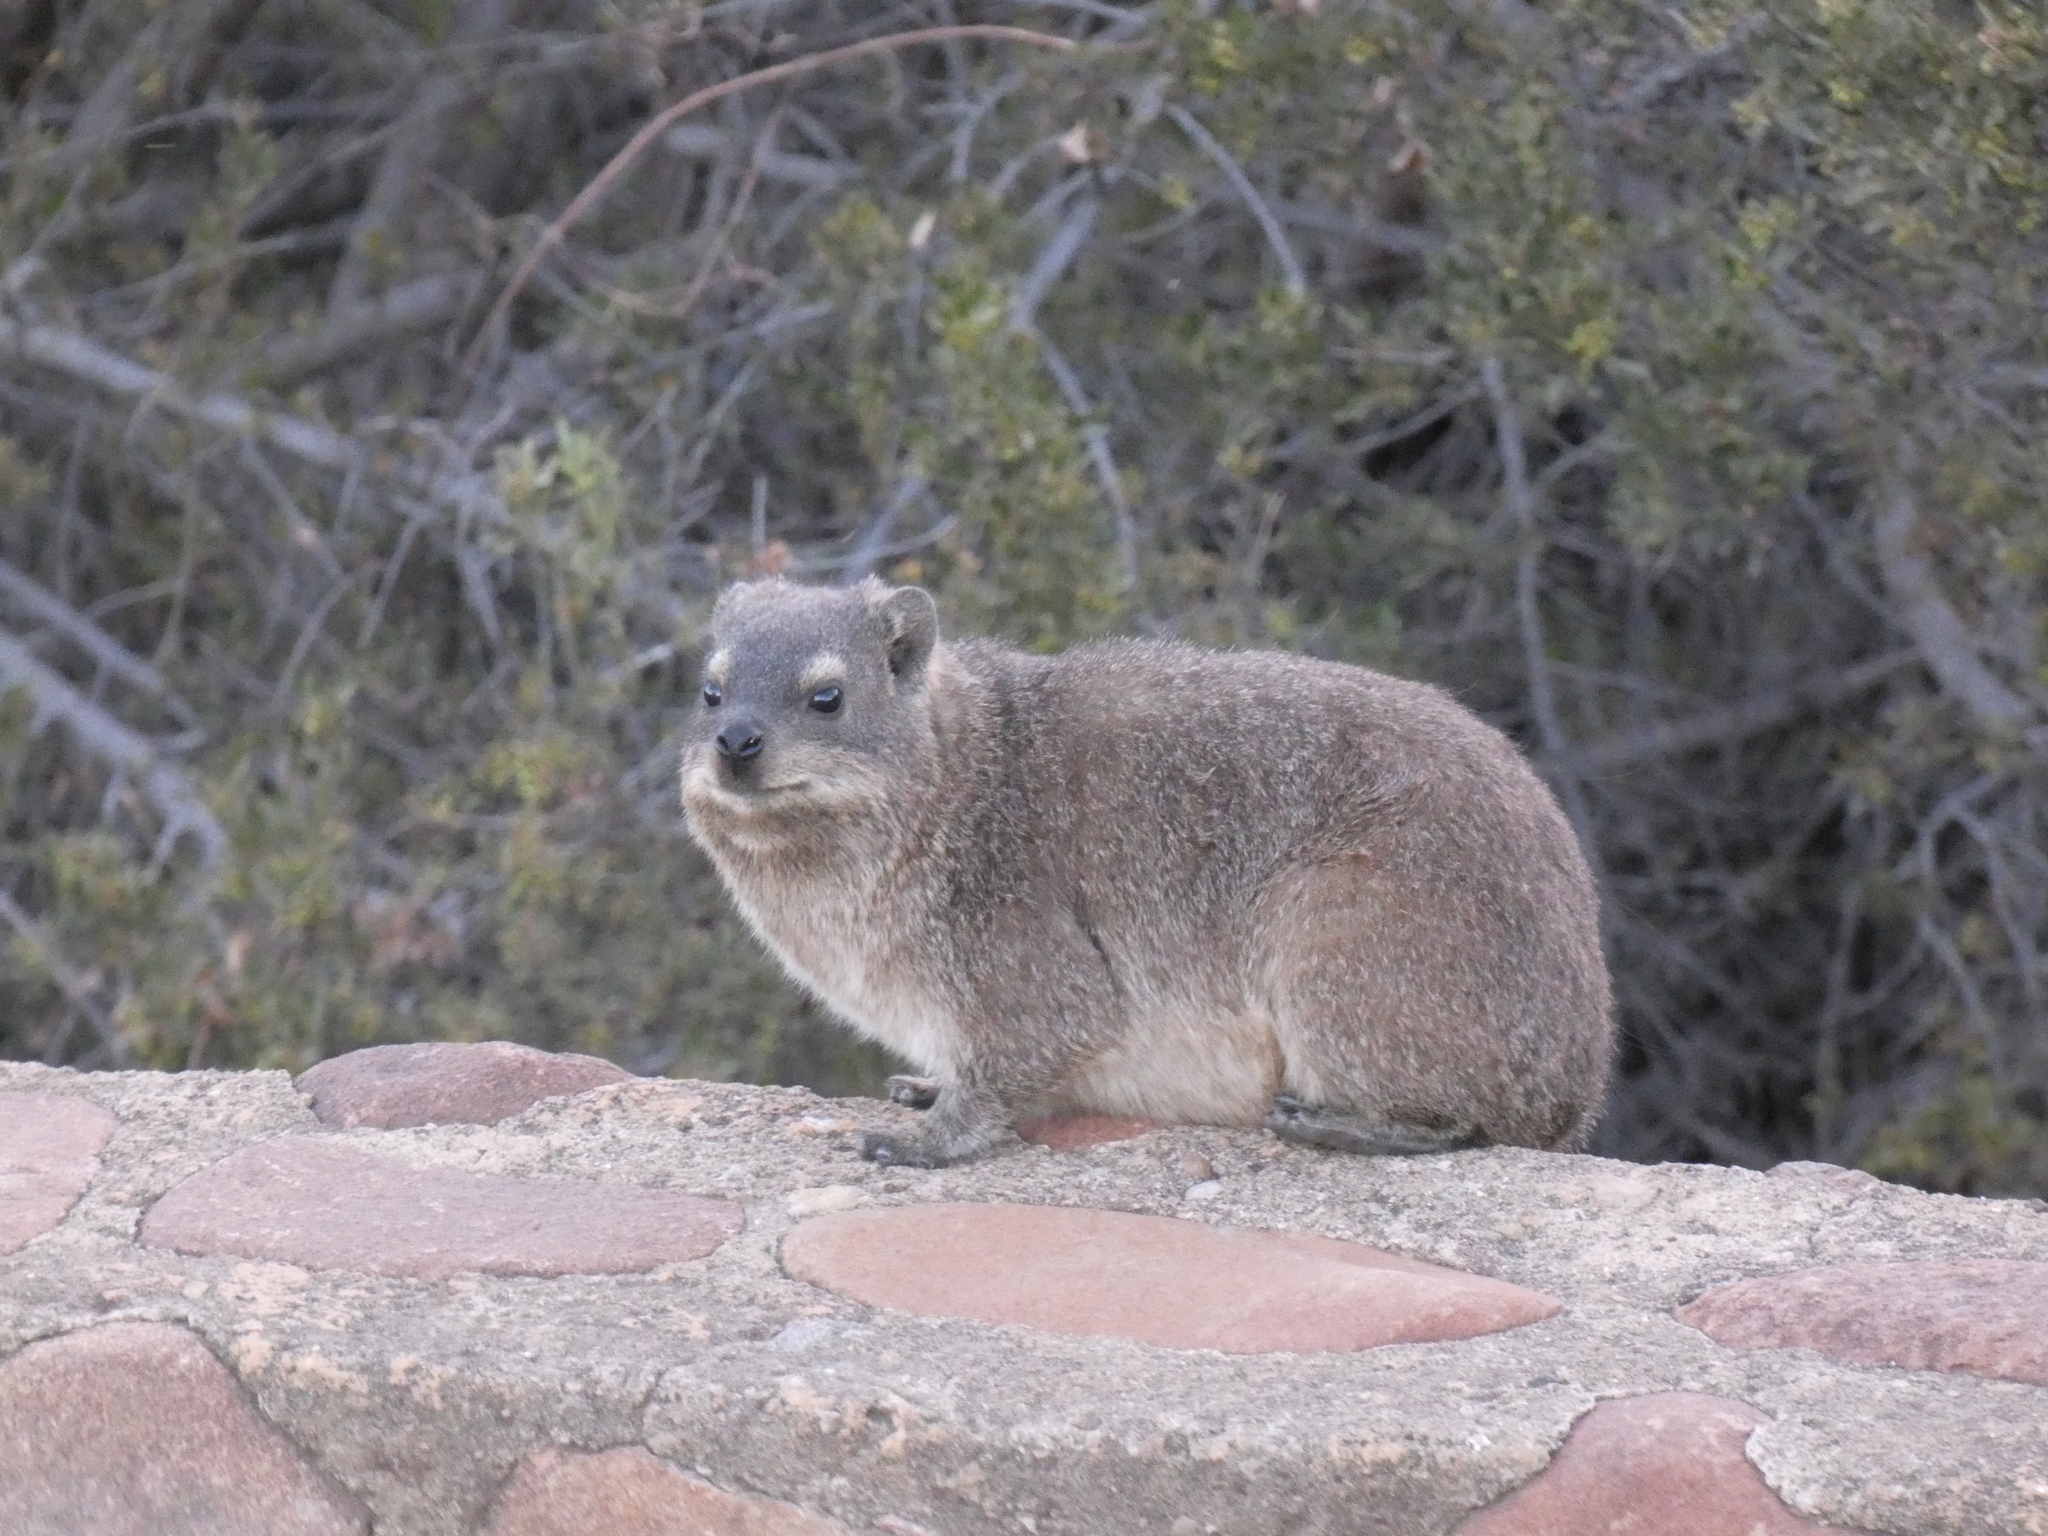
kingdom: Animalia
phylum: Chordata
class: Mammalia
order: Hyracoidea
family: Procaviidae
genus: Procavia
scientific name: Procavia capensis
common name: Rock hyrax
